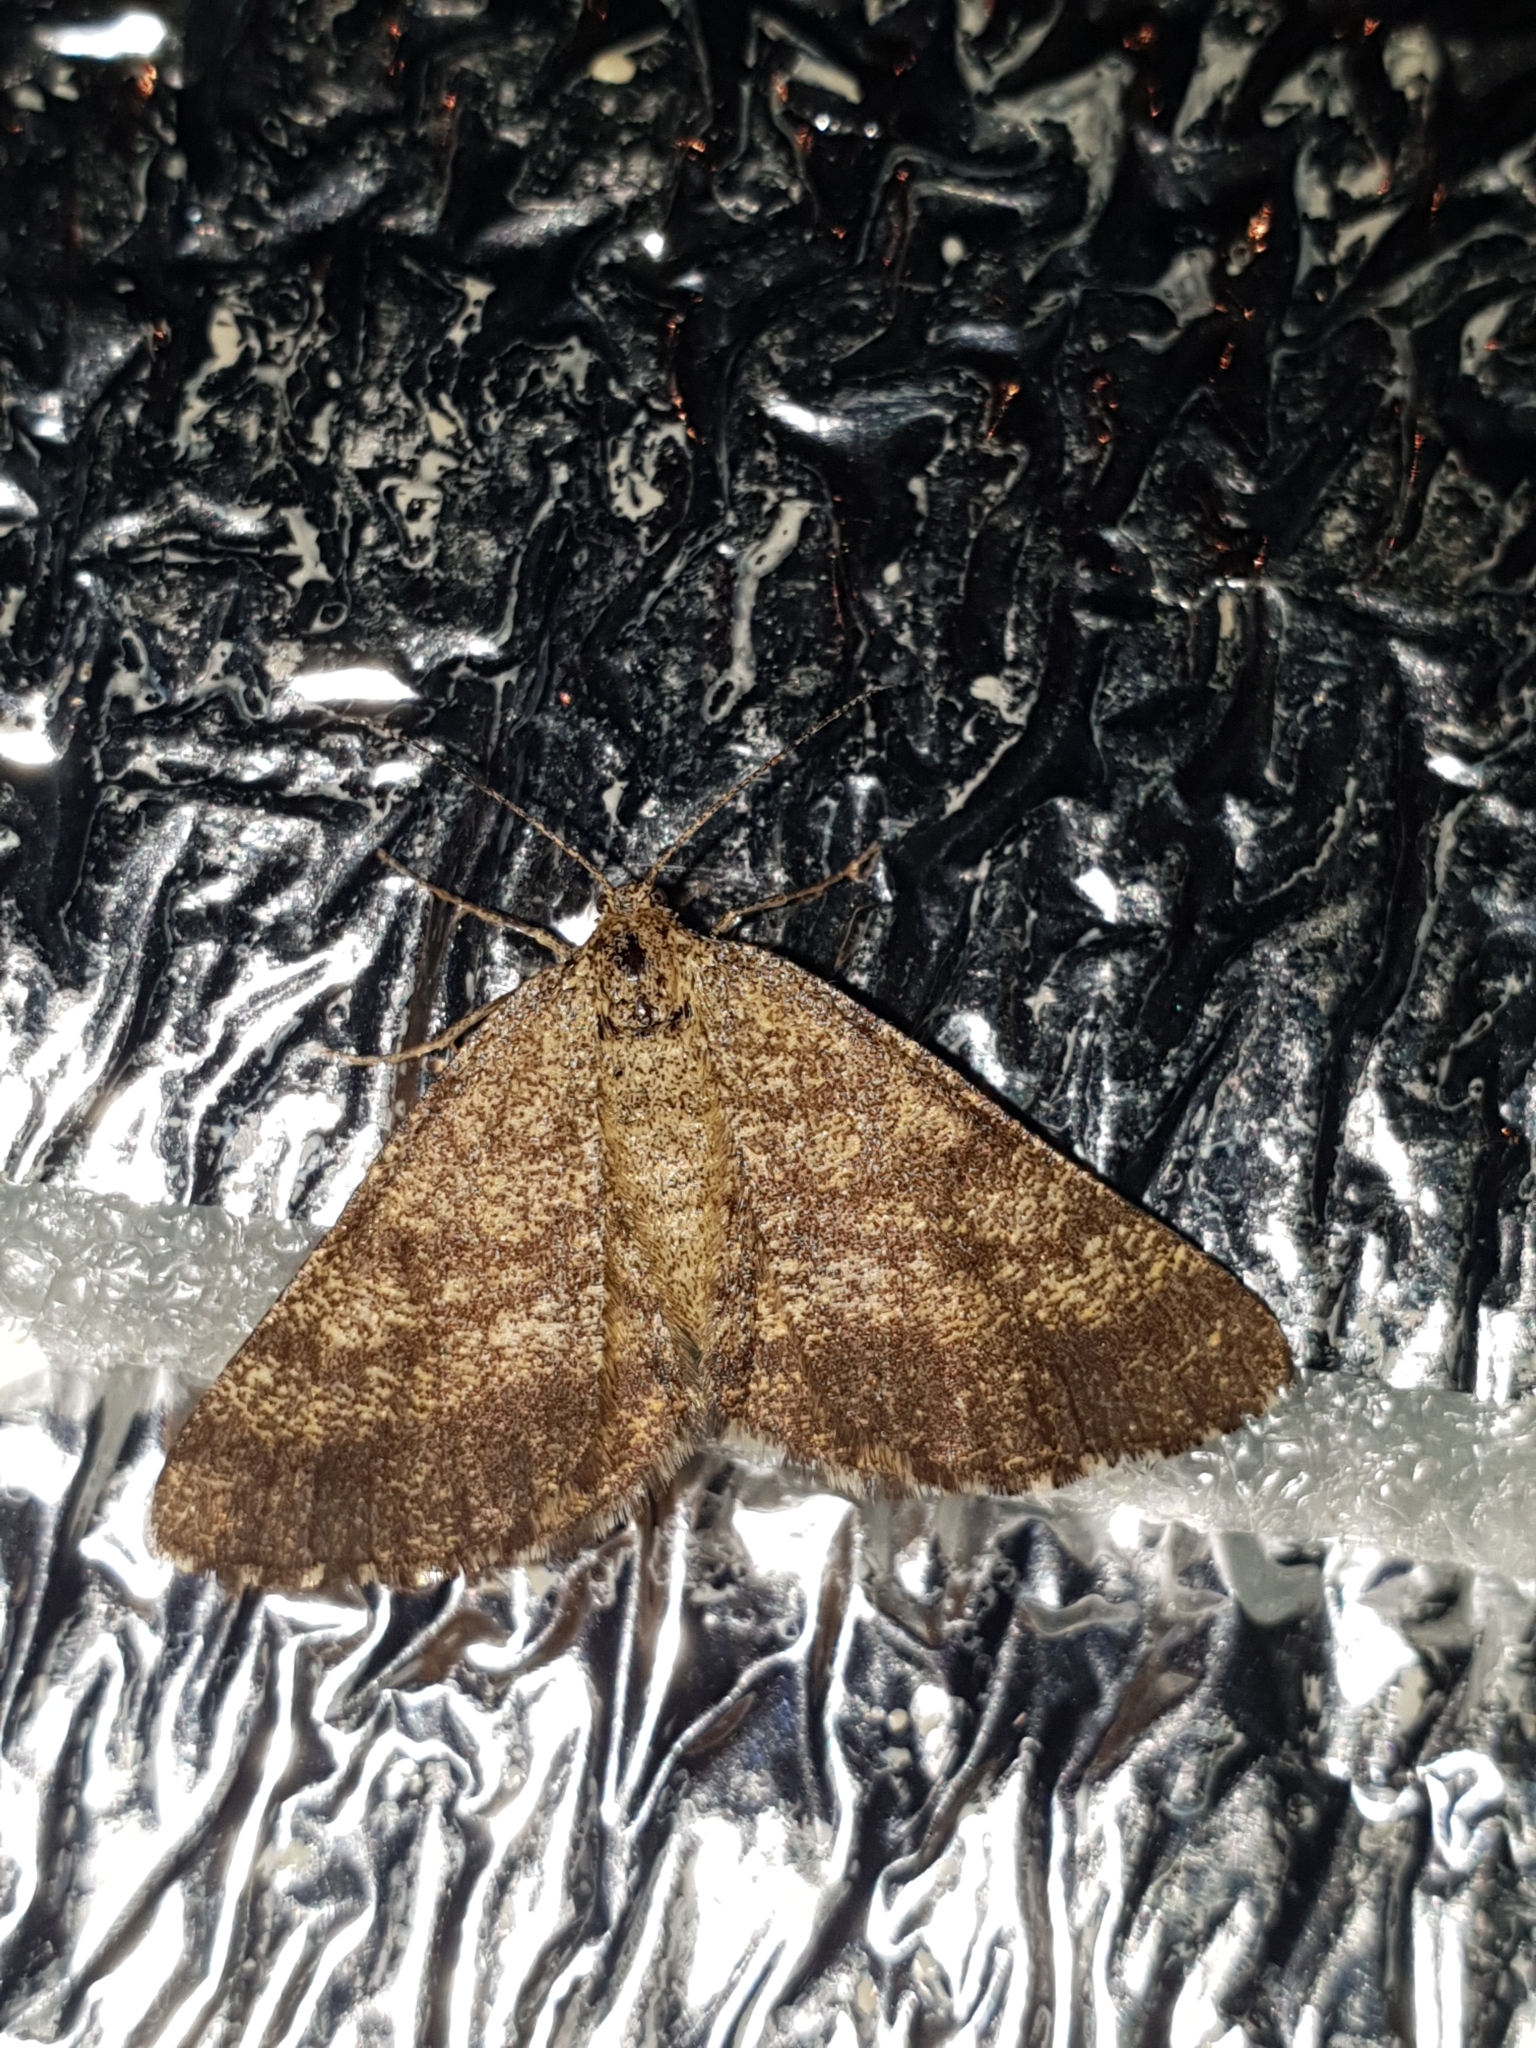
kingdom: Animalia
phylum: Arthropoda
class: Insecta
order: Lepidoptera
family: Geometridae
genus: Ematurga
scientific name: Ematurga atomaria
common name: Common heath
